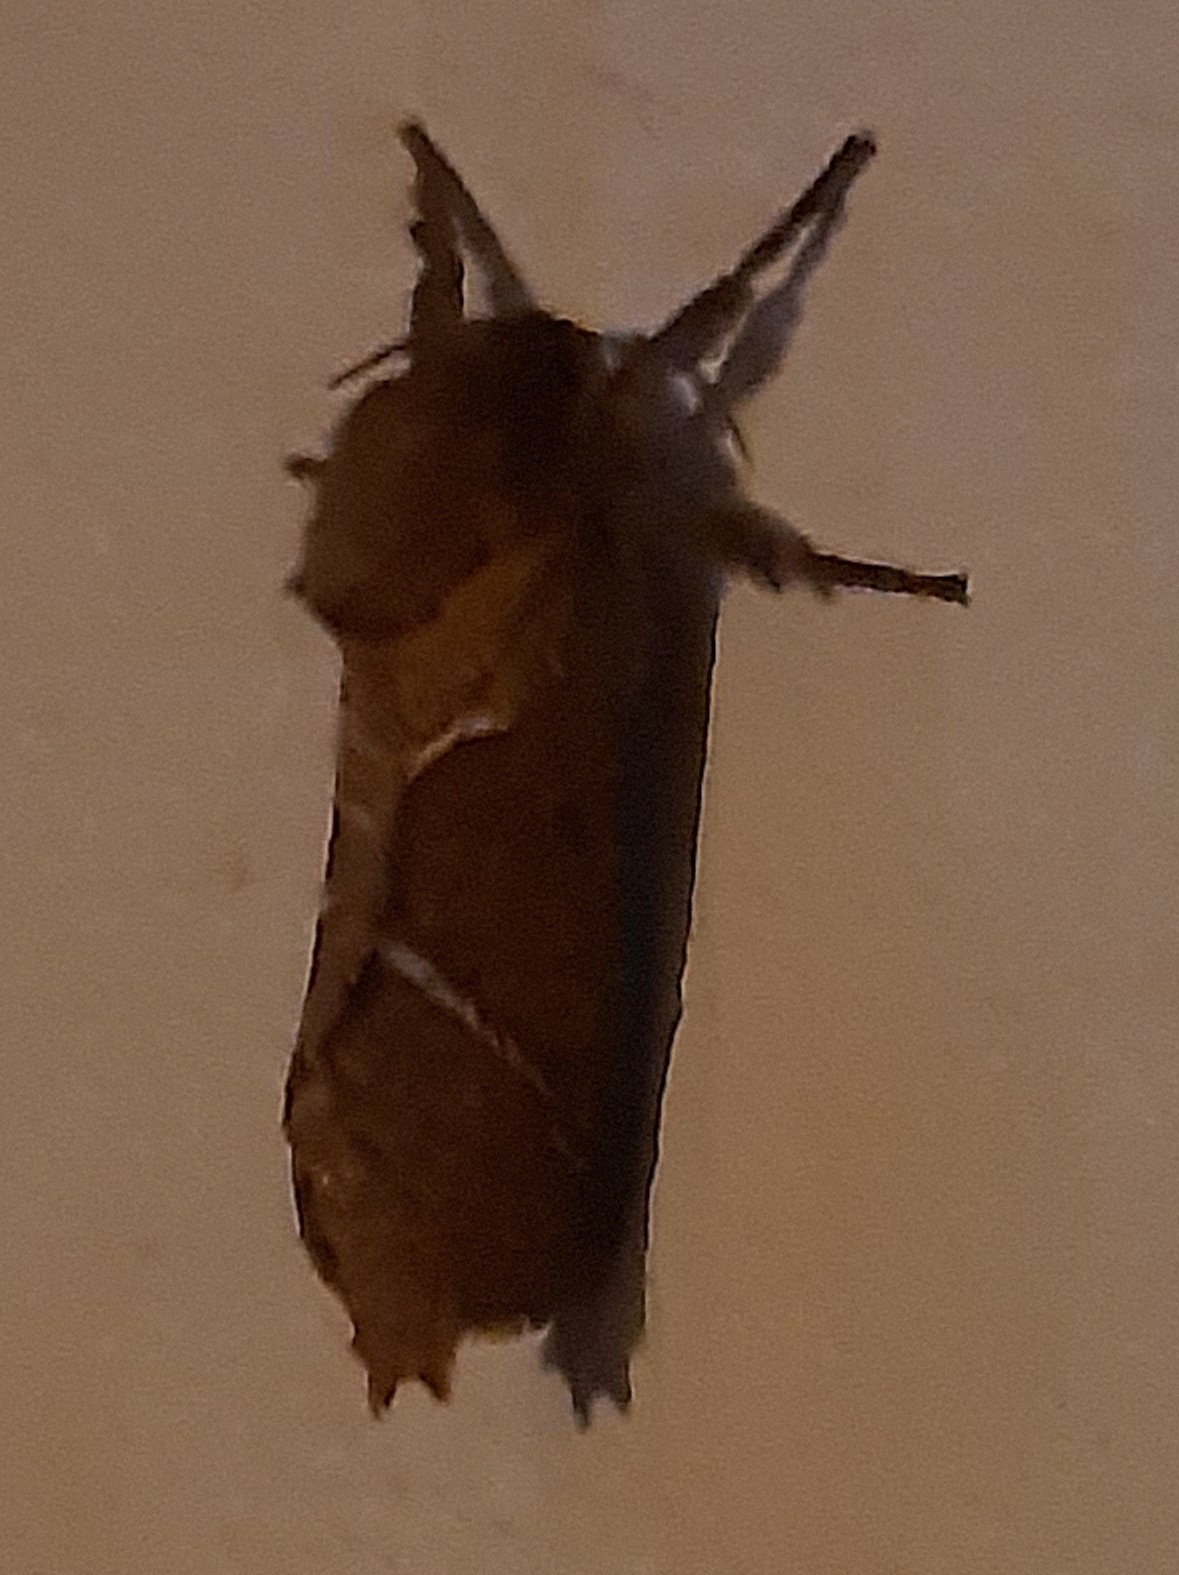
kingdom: Animalia
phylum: Arthropoda
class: Insecta
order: Lepidoptera
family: Hepialidae
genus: Triodia
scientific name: Triodia sylvina
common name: Orange swift
